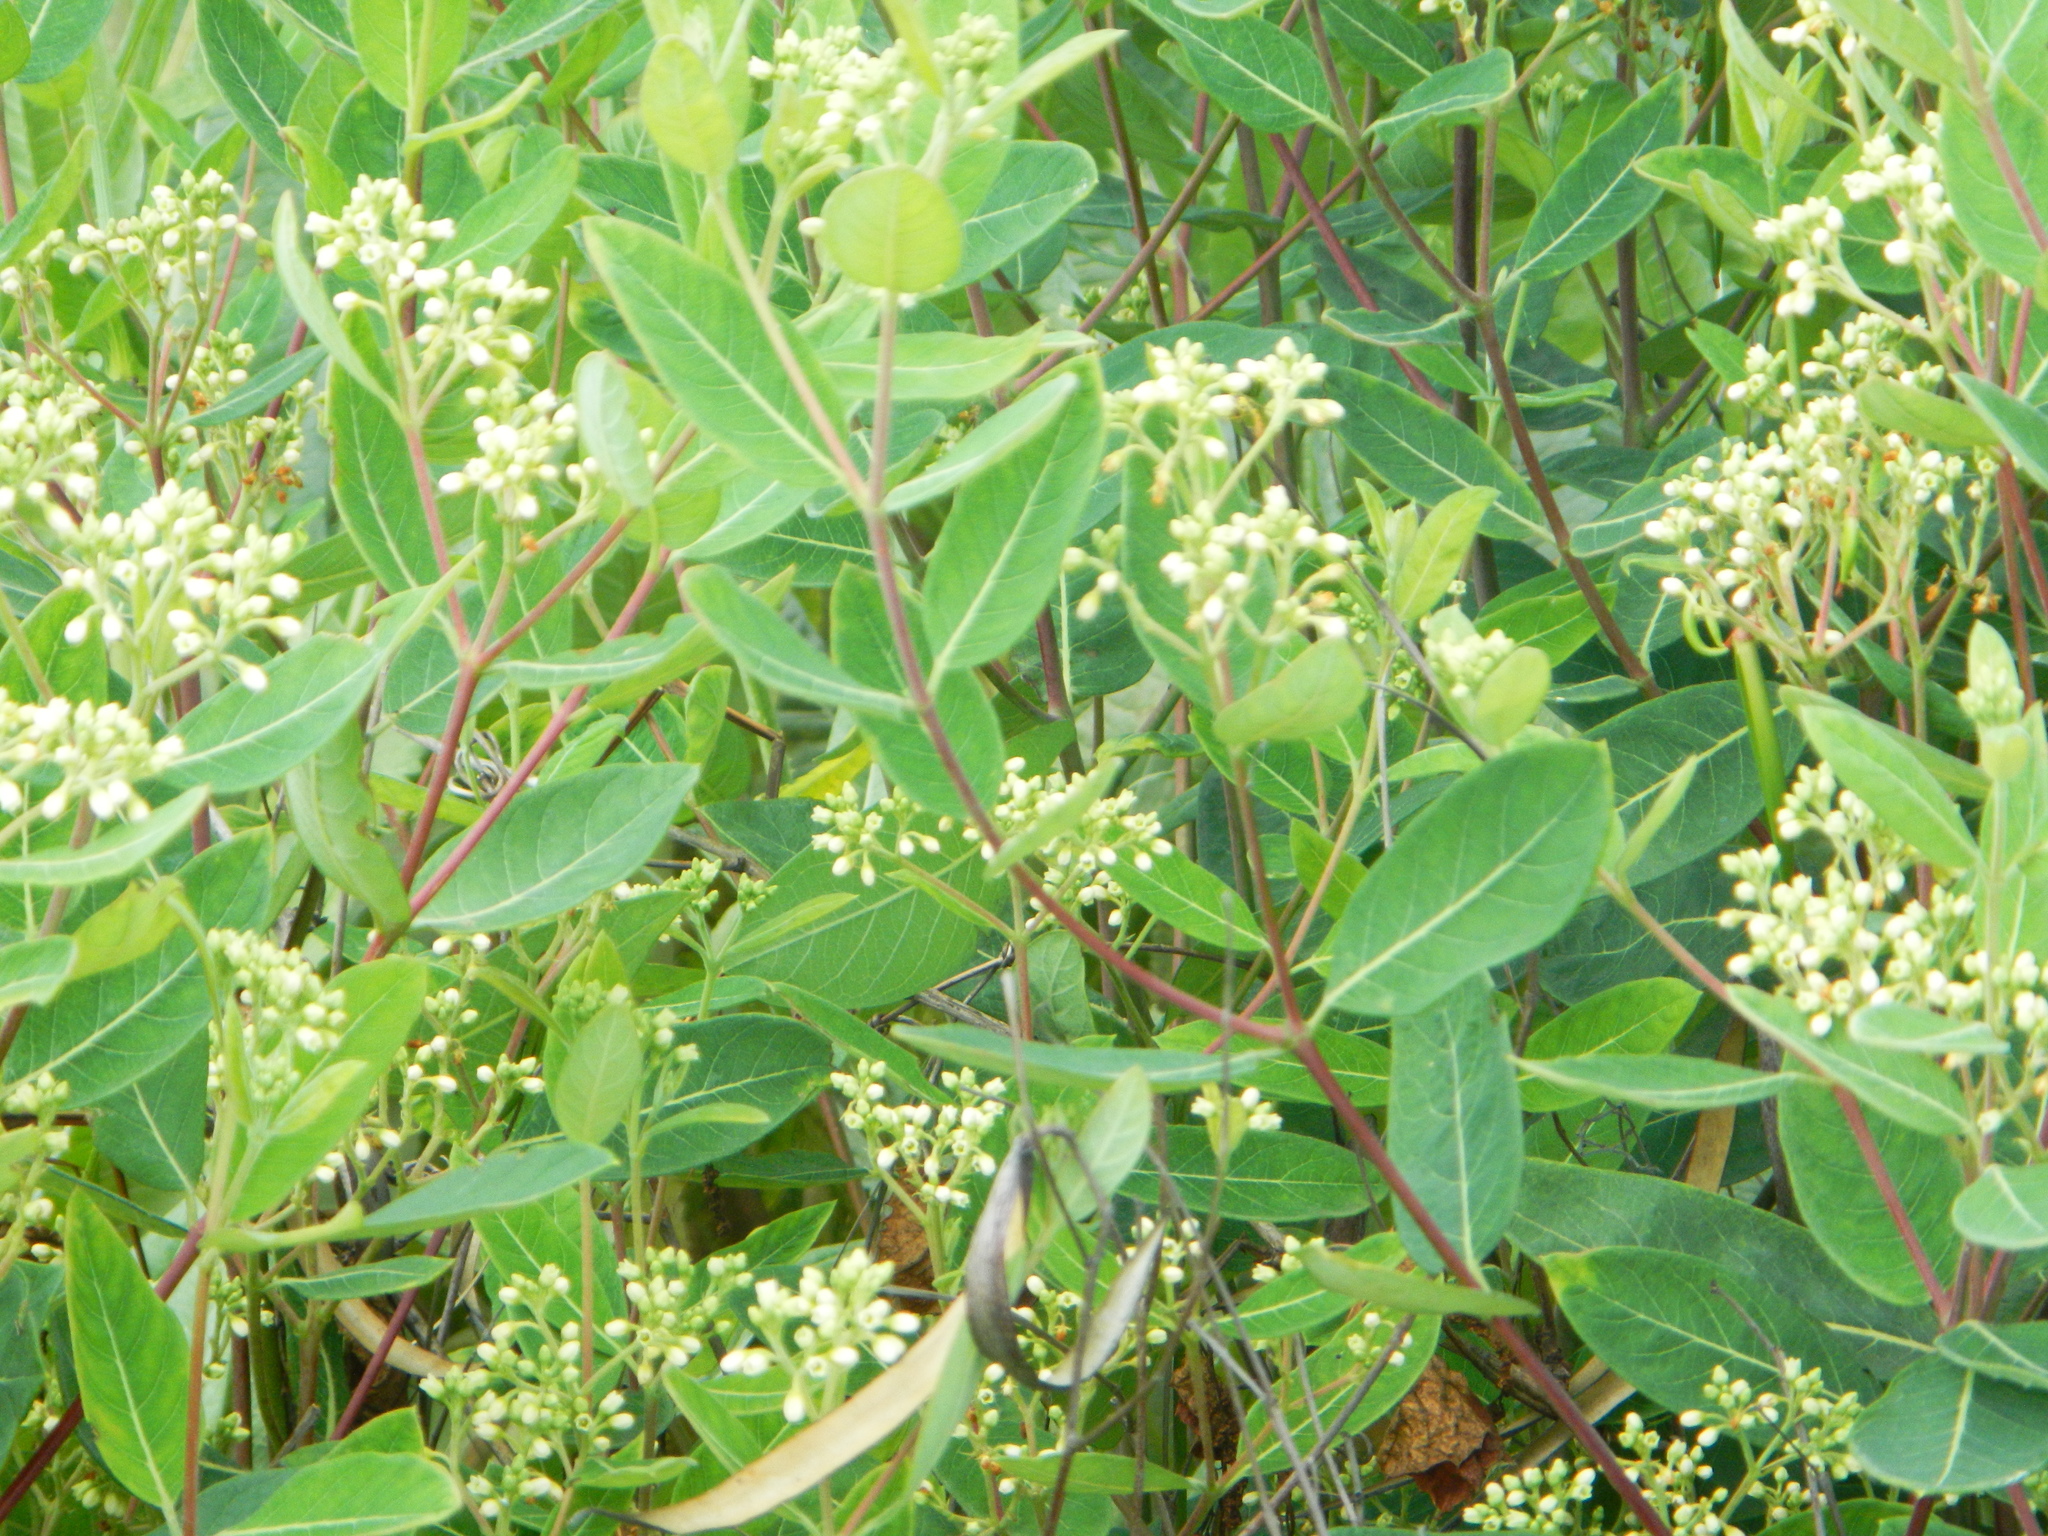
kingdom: Plantae
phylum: Tracheophyta
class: Magnoliopsida
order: Gentianales
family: Apocynaceae
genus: Apocynum
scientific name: Apocynum cannabinum
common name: Hemp dogbane
